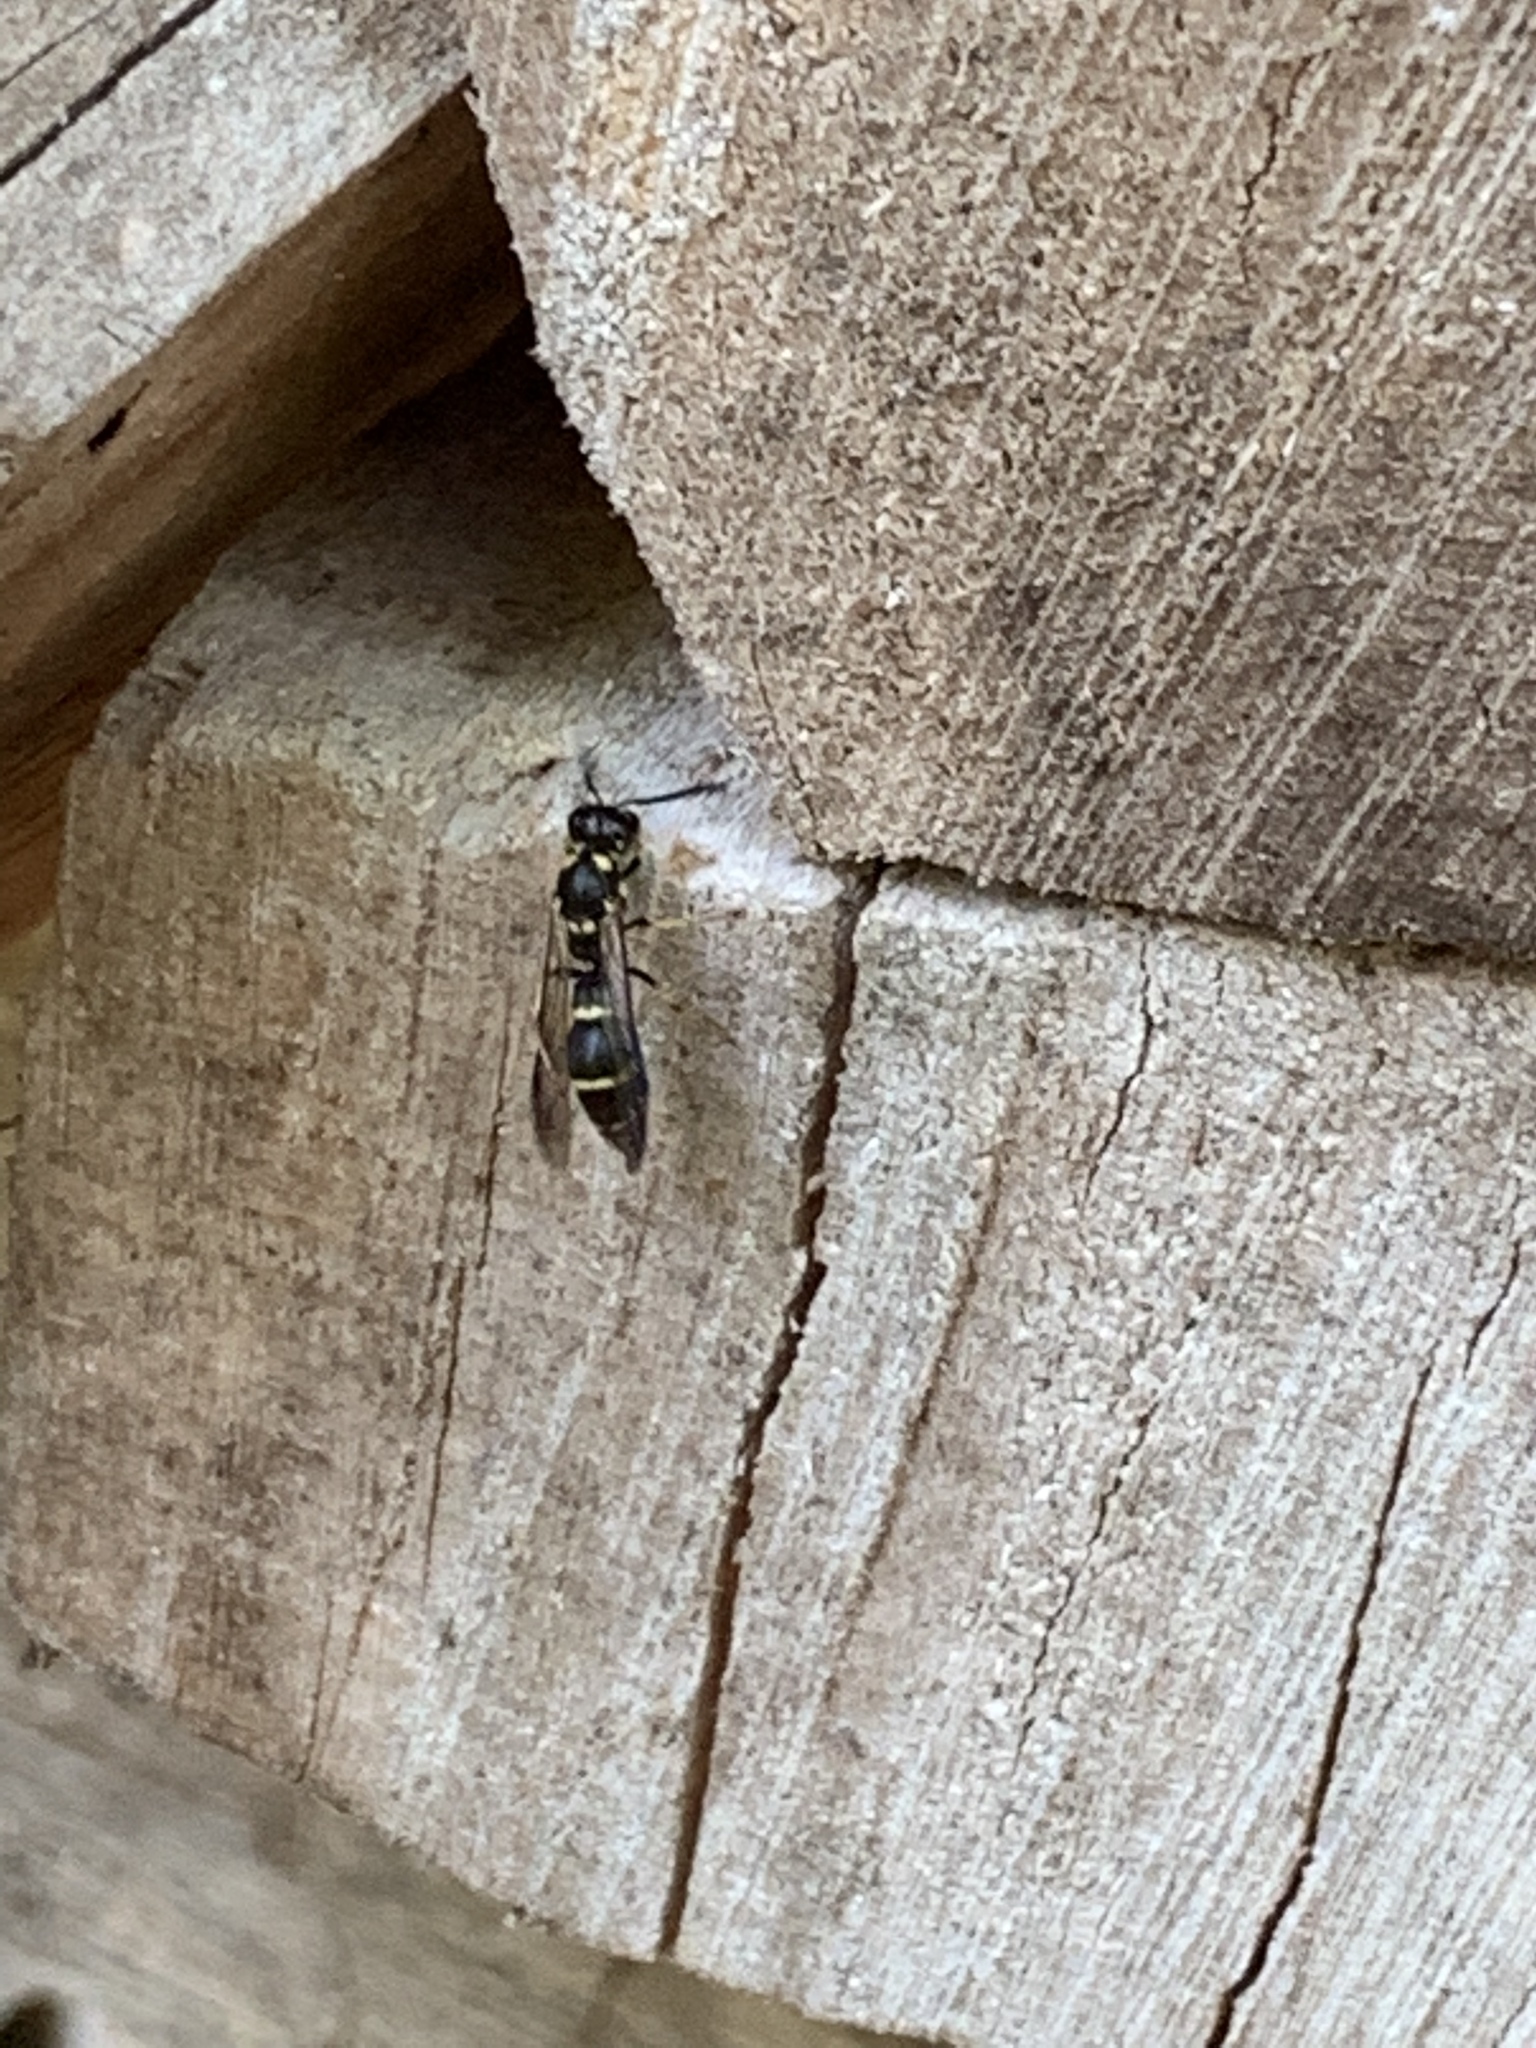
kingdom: Animalia
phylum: Arthropoda
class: Insecta
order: Hymenoptera
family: Eumenidae
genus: Symmorphus
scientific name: Symmorphus
